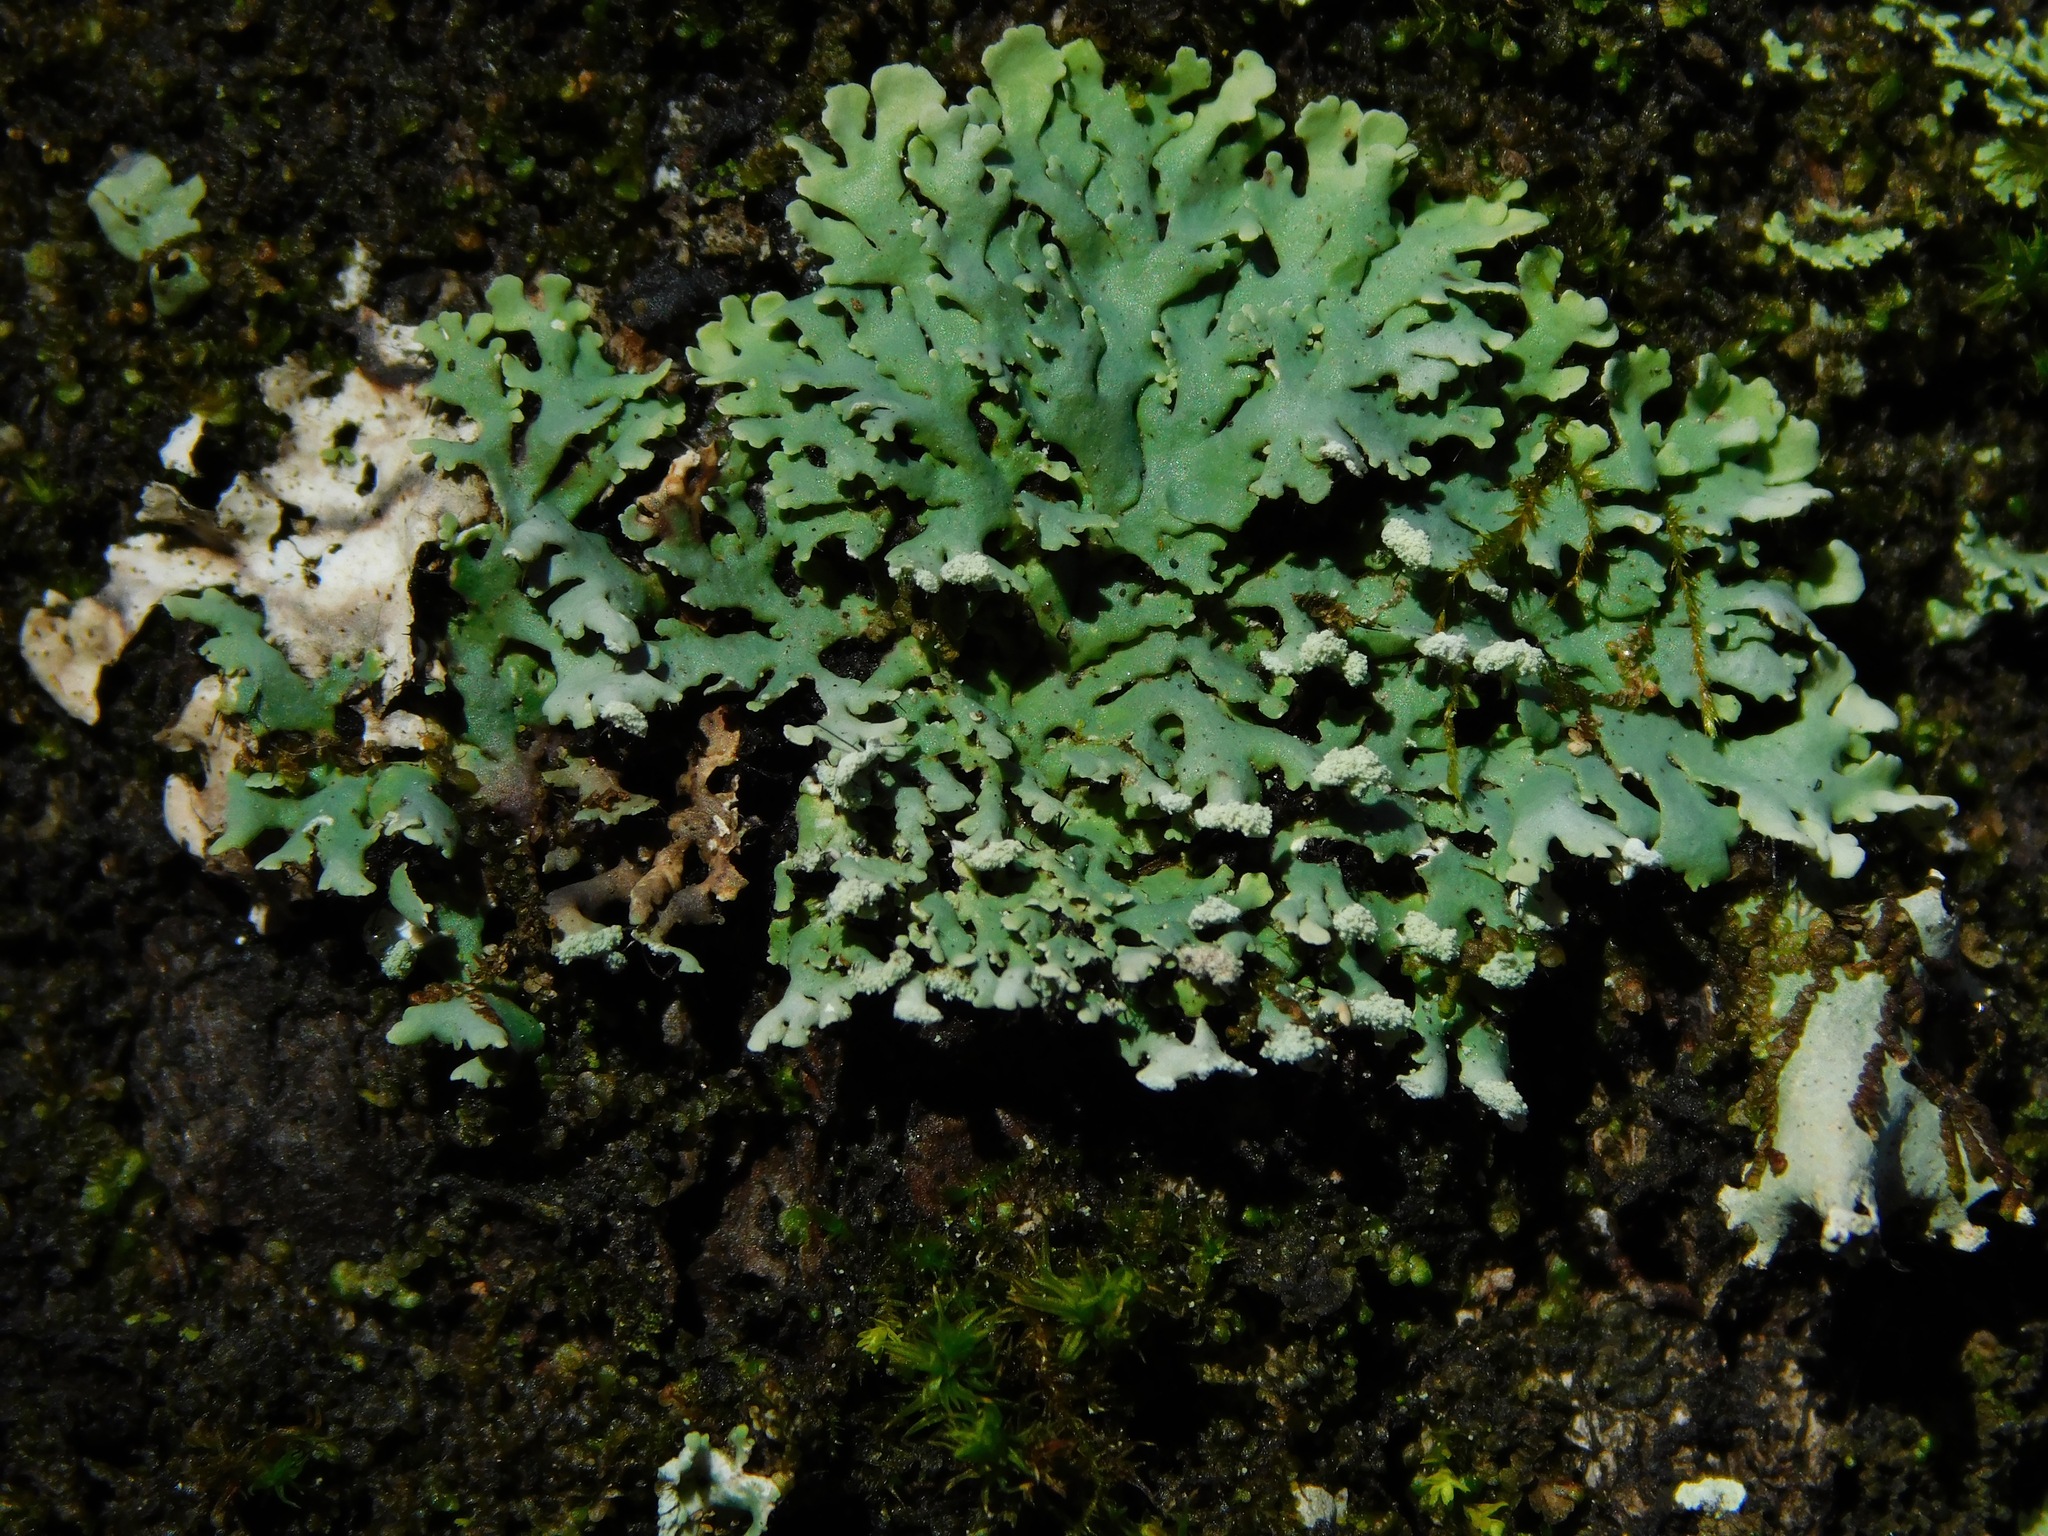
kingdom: Fungi
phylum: Ascomycota
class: Lecanoromycetes
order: Caliciales
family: Physciaceae
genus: Polyblastidium
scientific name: Polyblastidium neglectum
